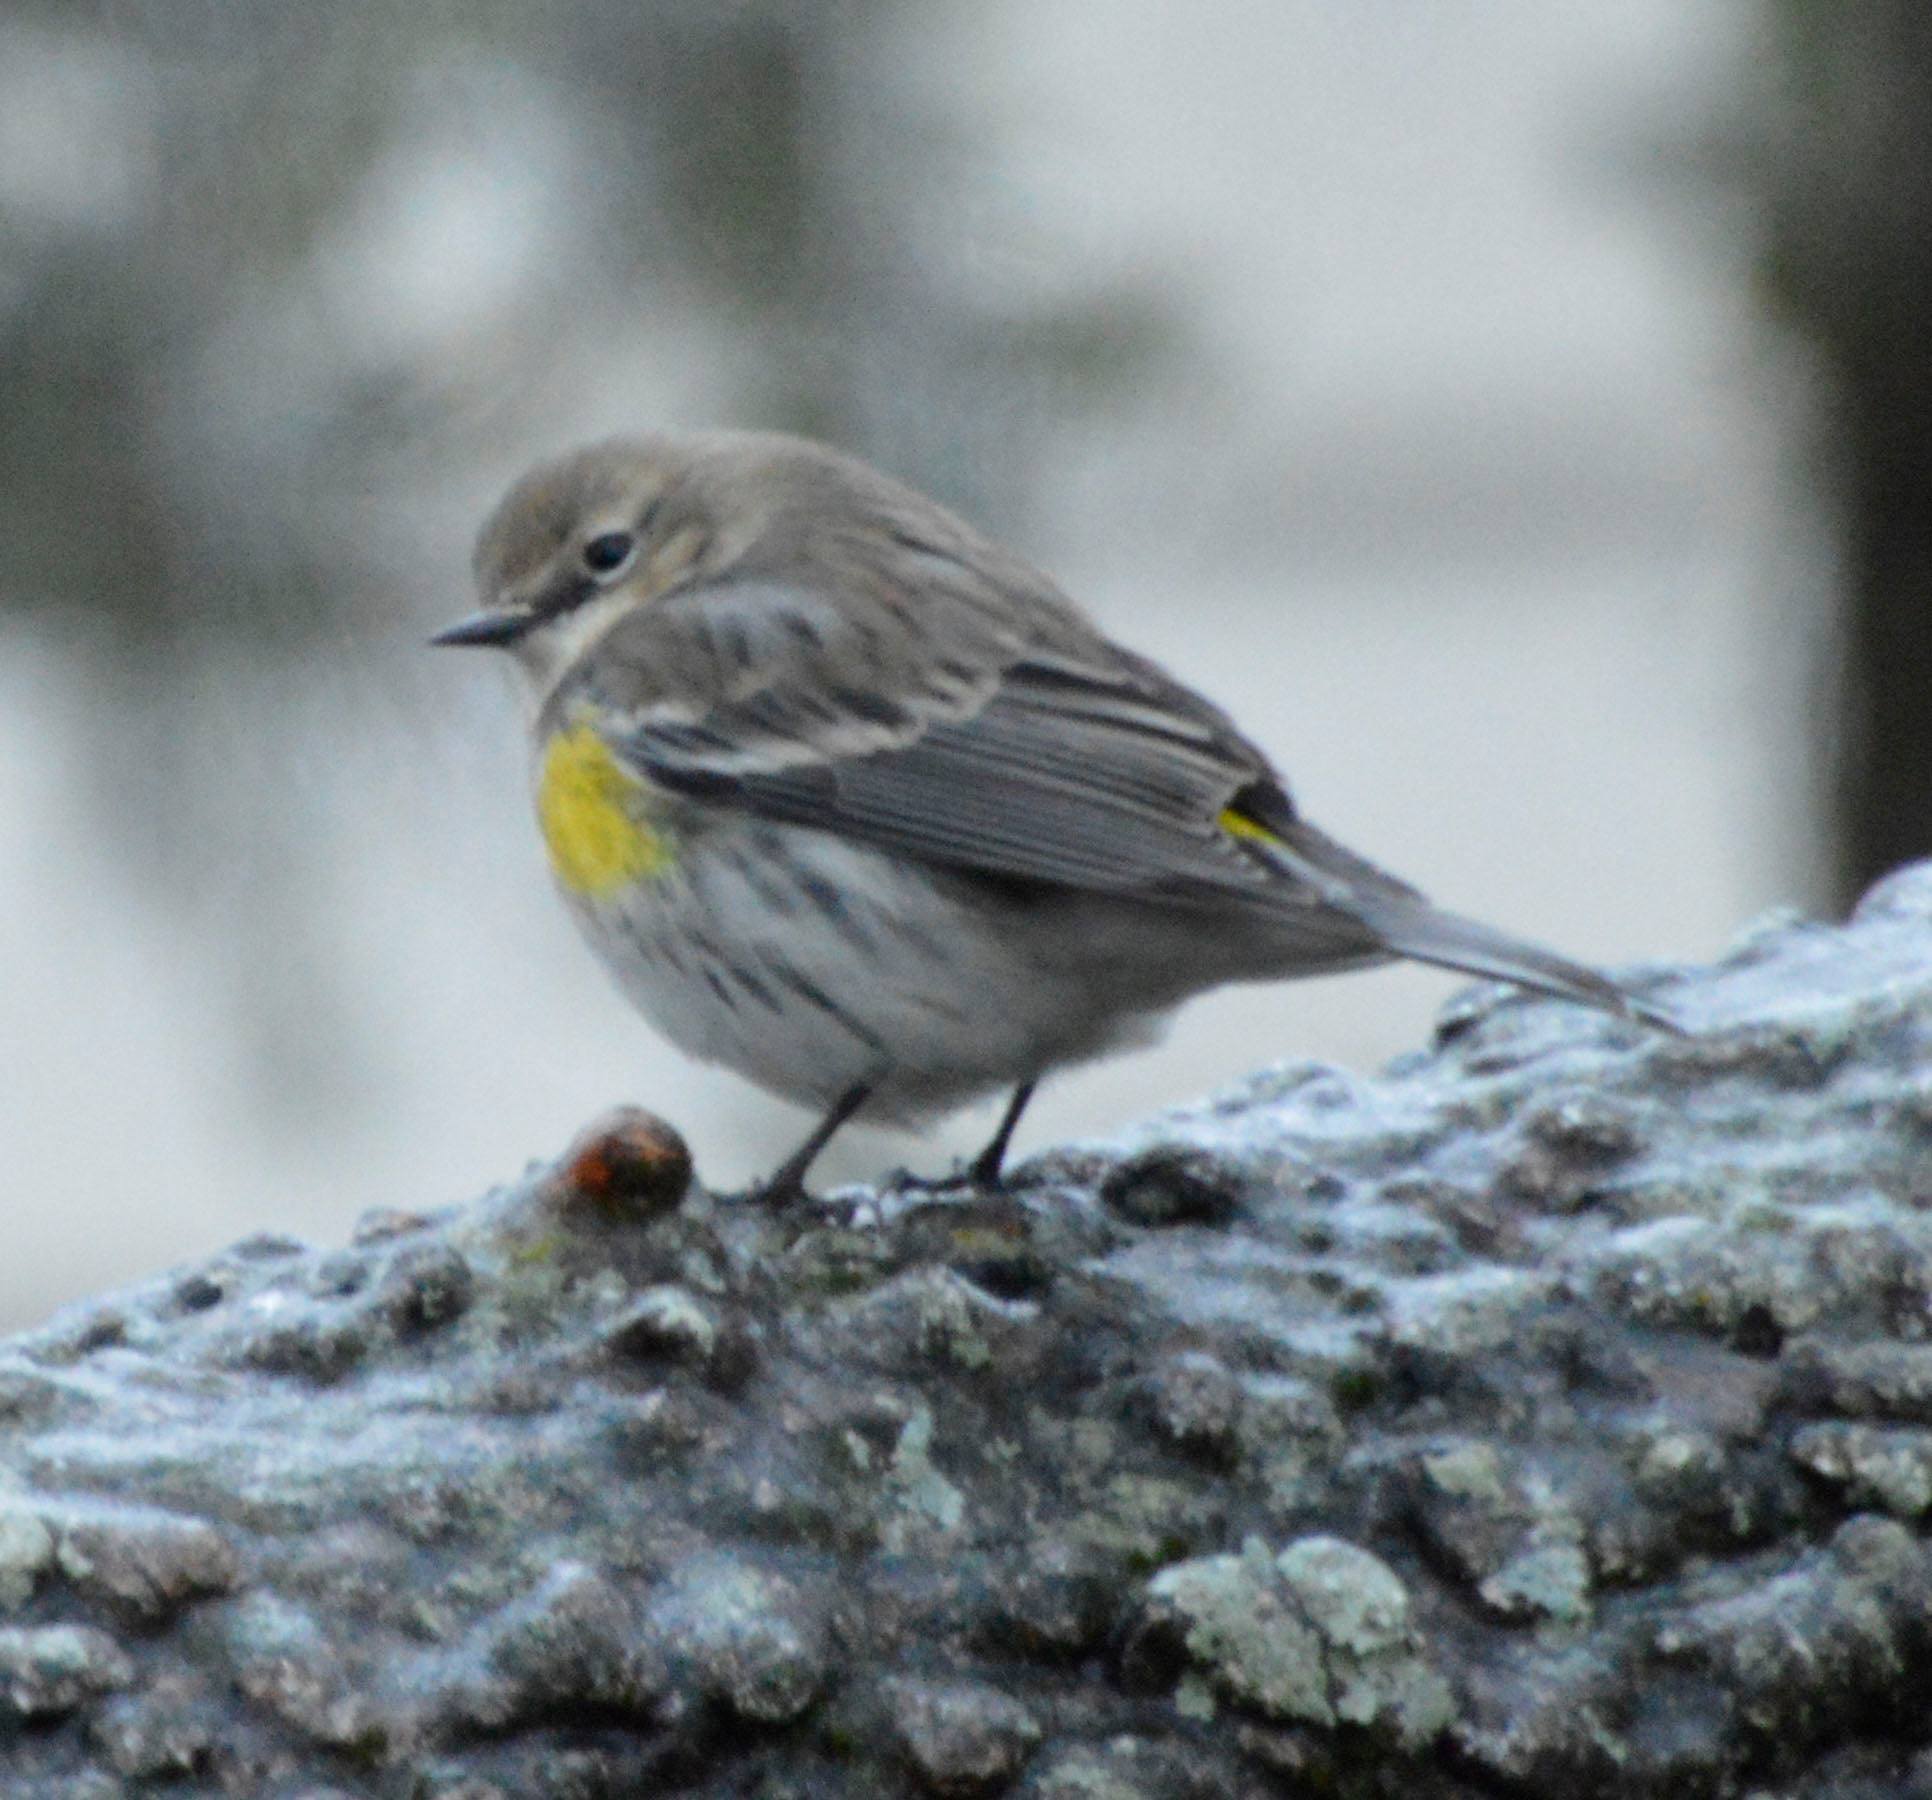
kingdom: Animalia
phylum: Chordata
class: Aves
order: Passeriformes
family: Parulidae
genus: Setophaga
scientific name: Setophaga coronata
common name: Myrtle warbler
